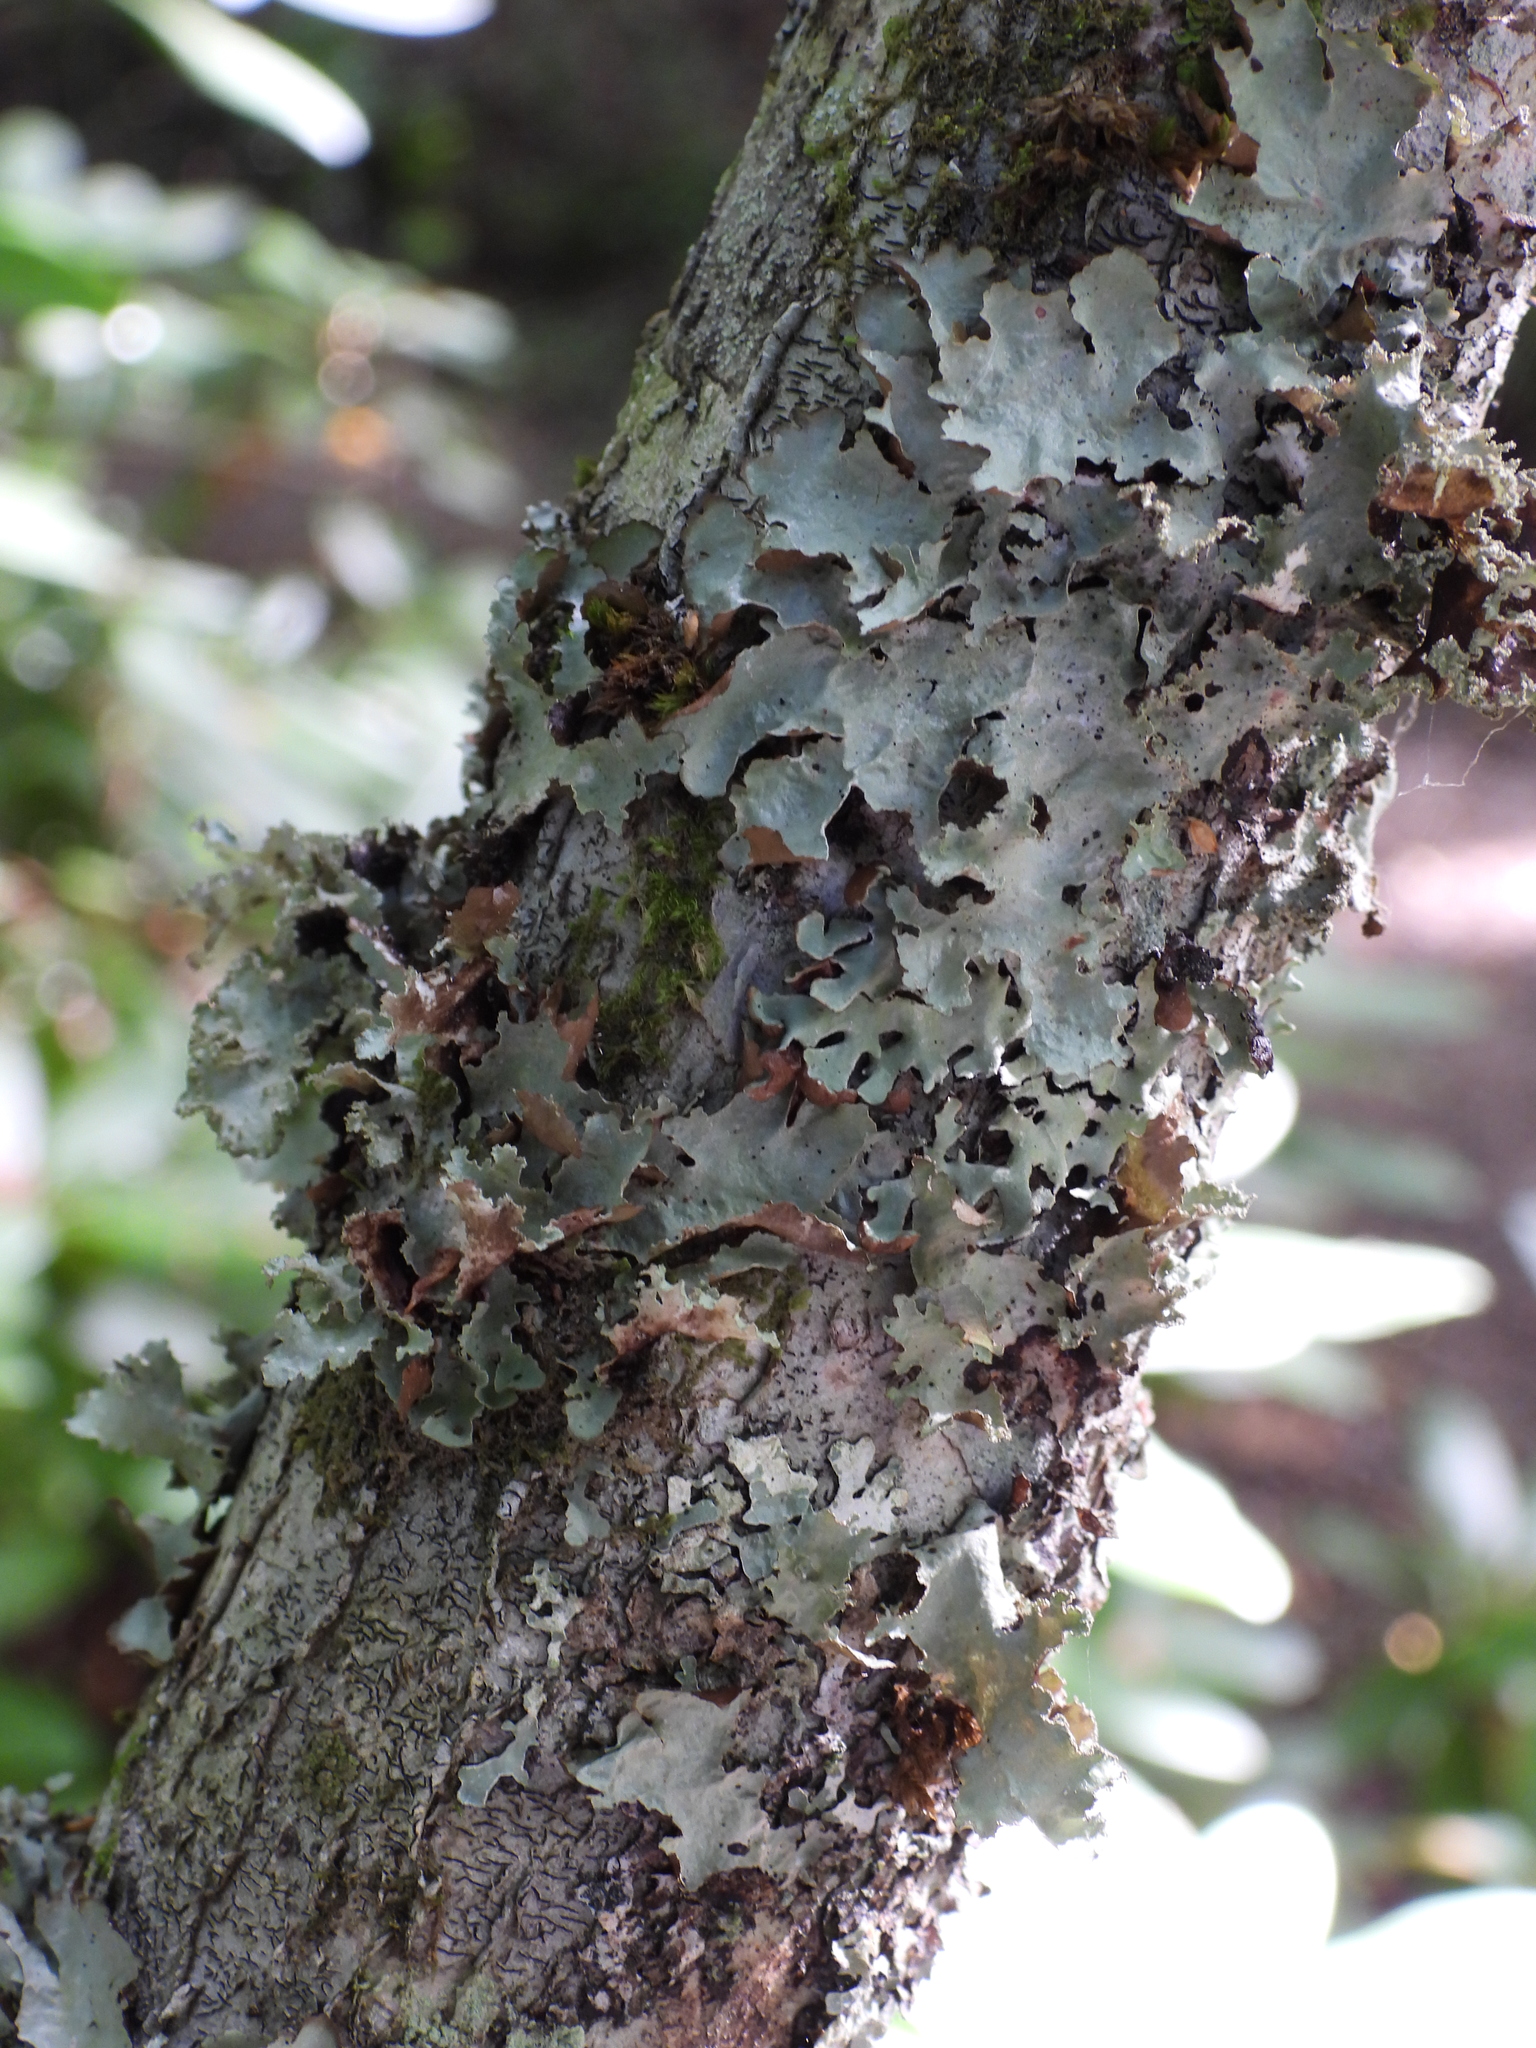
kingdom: Fungi
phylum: Ascomycota
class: Lecanoromycetes
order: Lecanorales
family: Parmeliaceae
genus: Platismatia
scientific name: Platismatia glauca
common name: Varied rag lichen
